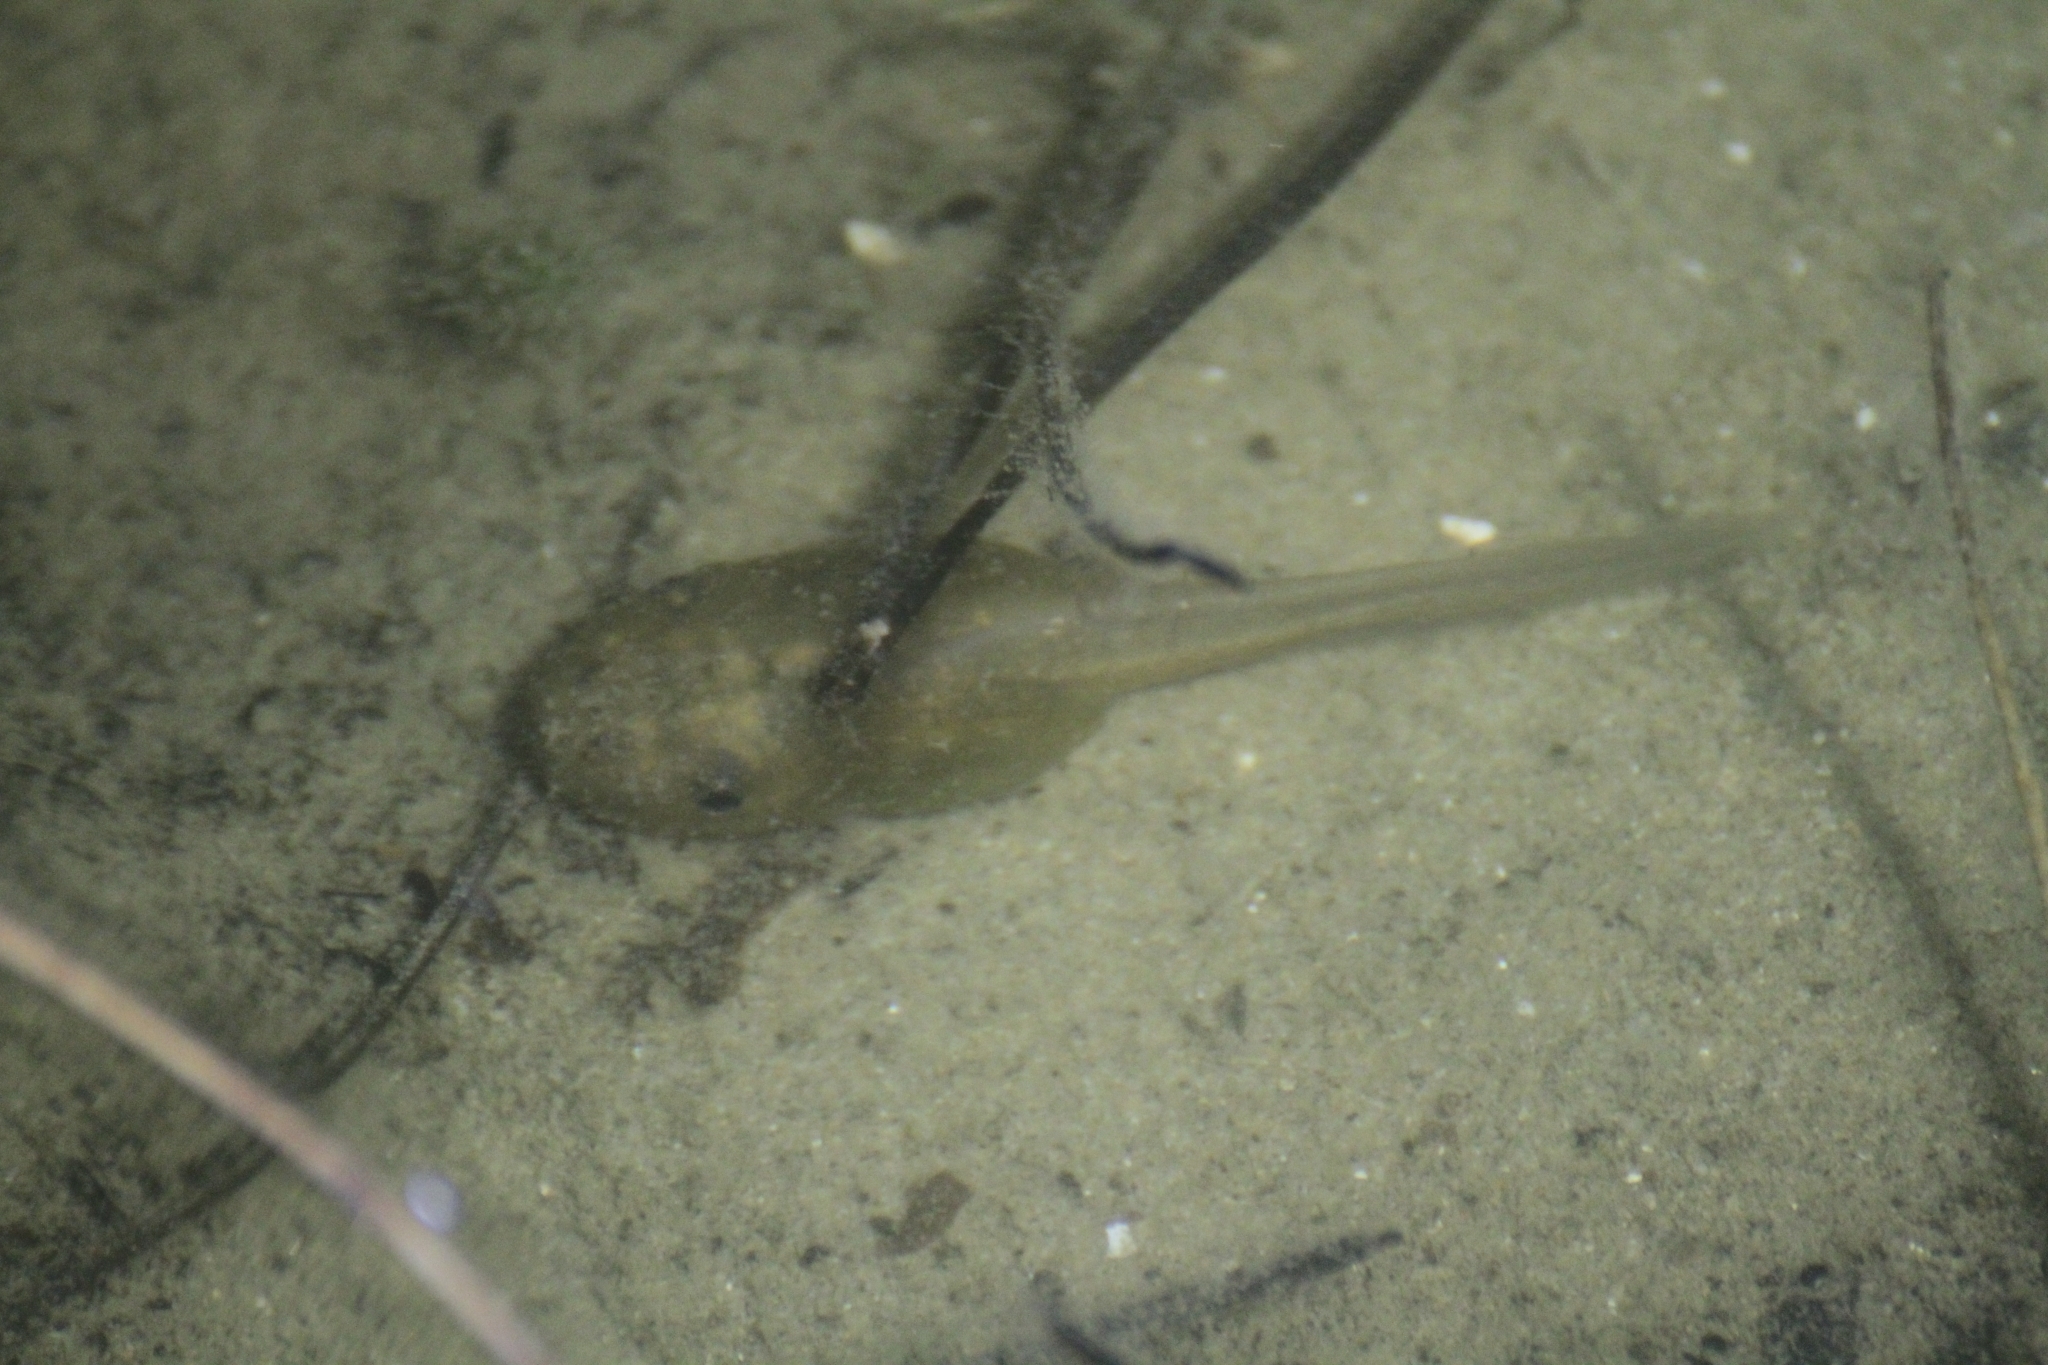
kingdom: Animalia
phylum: Chordata
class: Amphibia
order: Anura
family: Pelobatidae
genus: Pelobates
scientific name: Pelobates cultripes
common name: Western spadefoot
